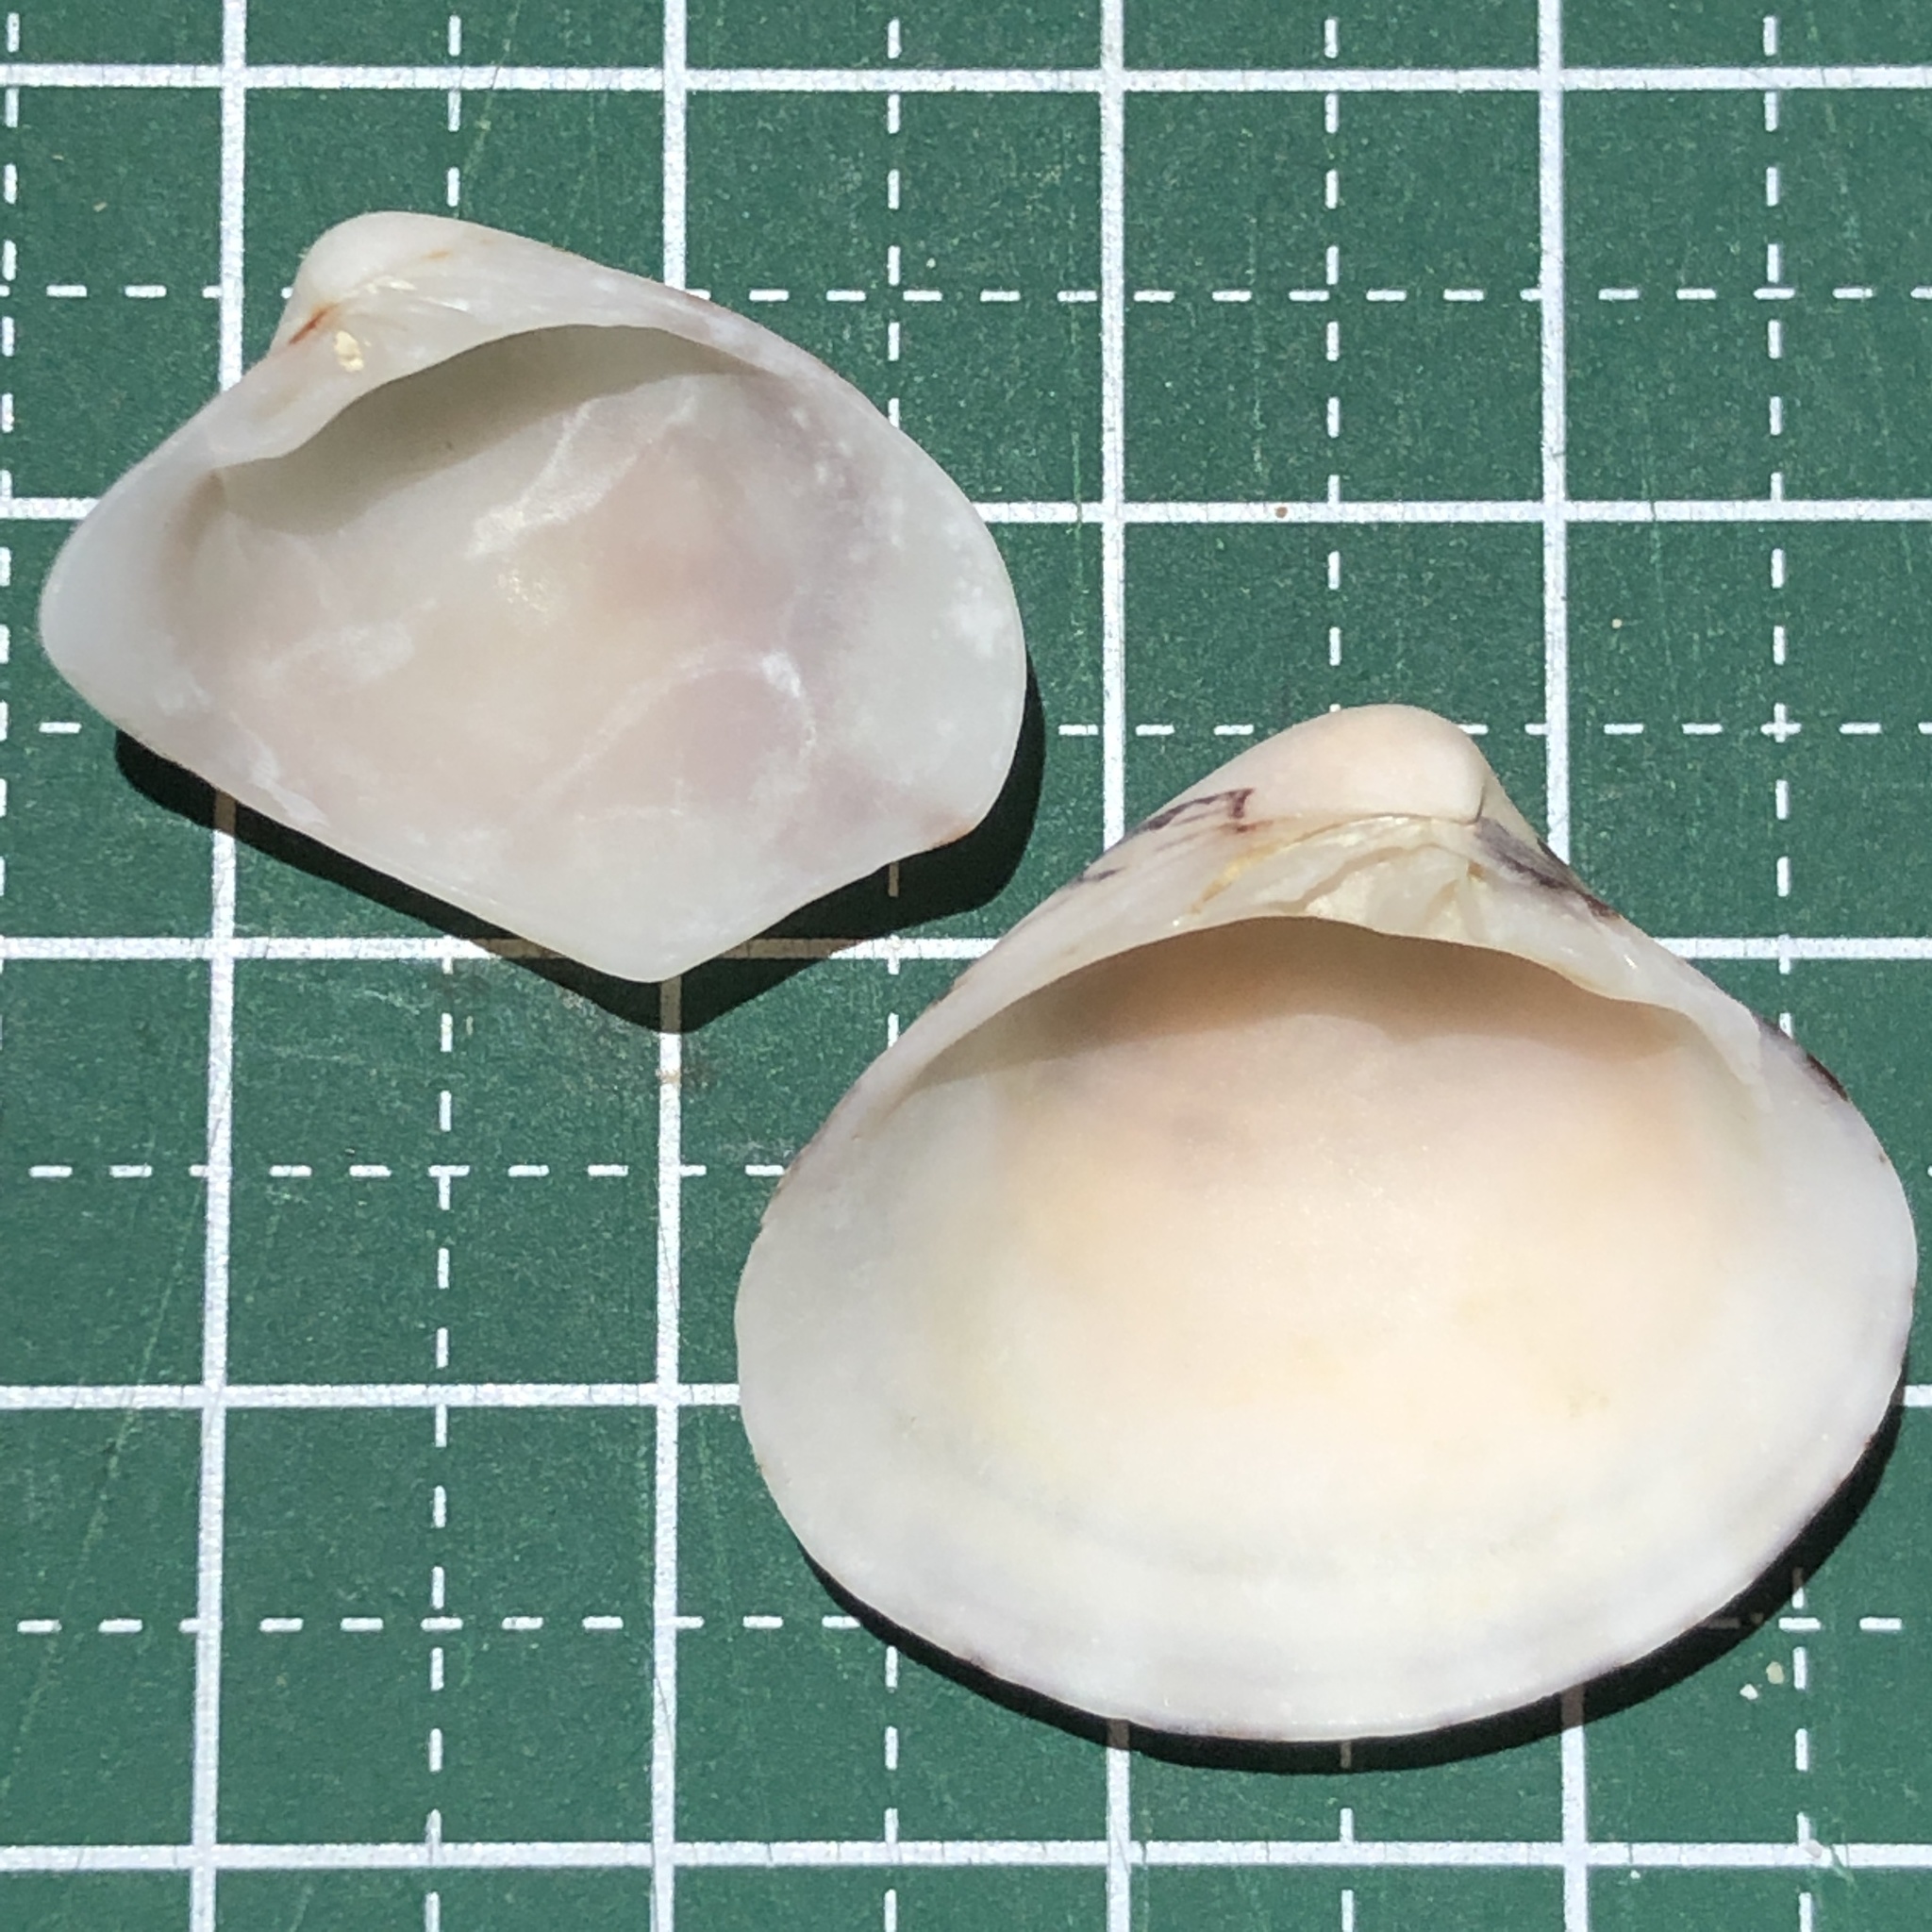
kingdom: Animalia
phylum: Mollusca
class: Bivalvia
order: Venerida
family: Veneridae
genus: Lioconcha
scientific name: Lioconcha fastigiata
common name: Clam
